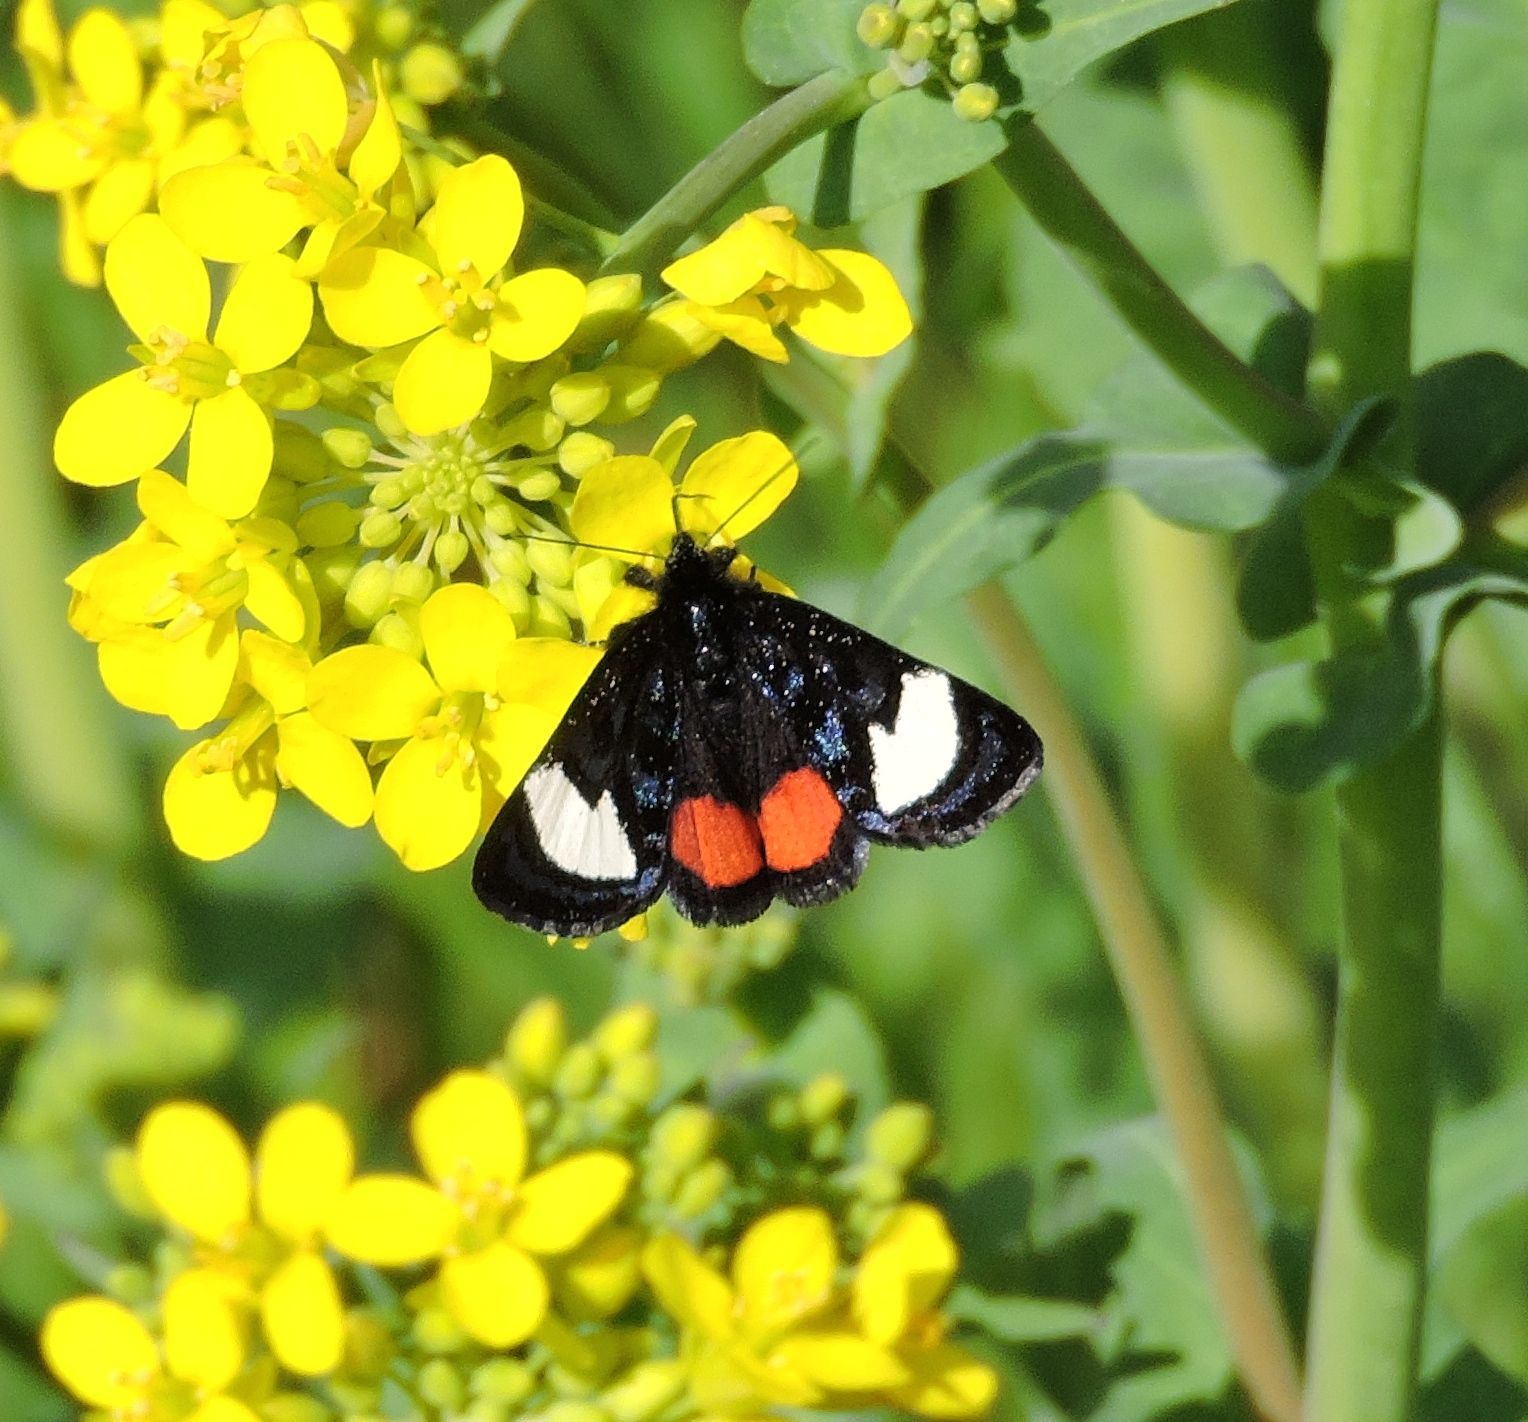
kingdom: Animalia
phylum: Arthropoda
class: Insecta
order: Lepidoptera
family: Noctuidae
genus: Psychomorpha
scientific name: Psychomorpha epimenis
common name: Grapevine epimenis moth
